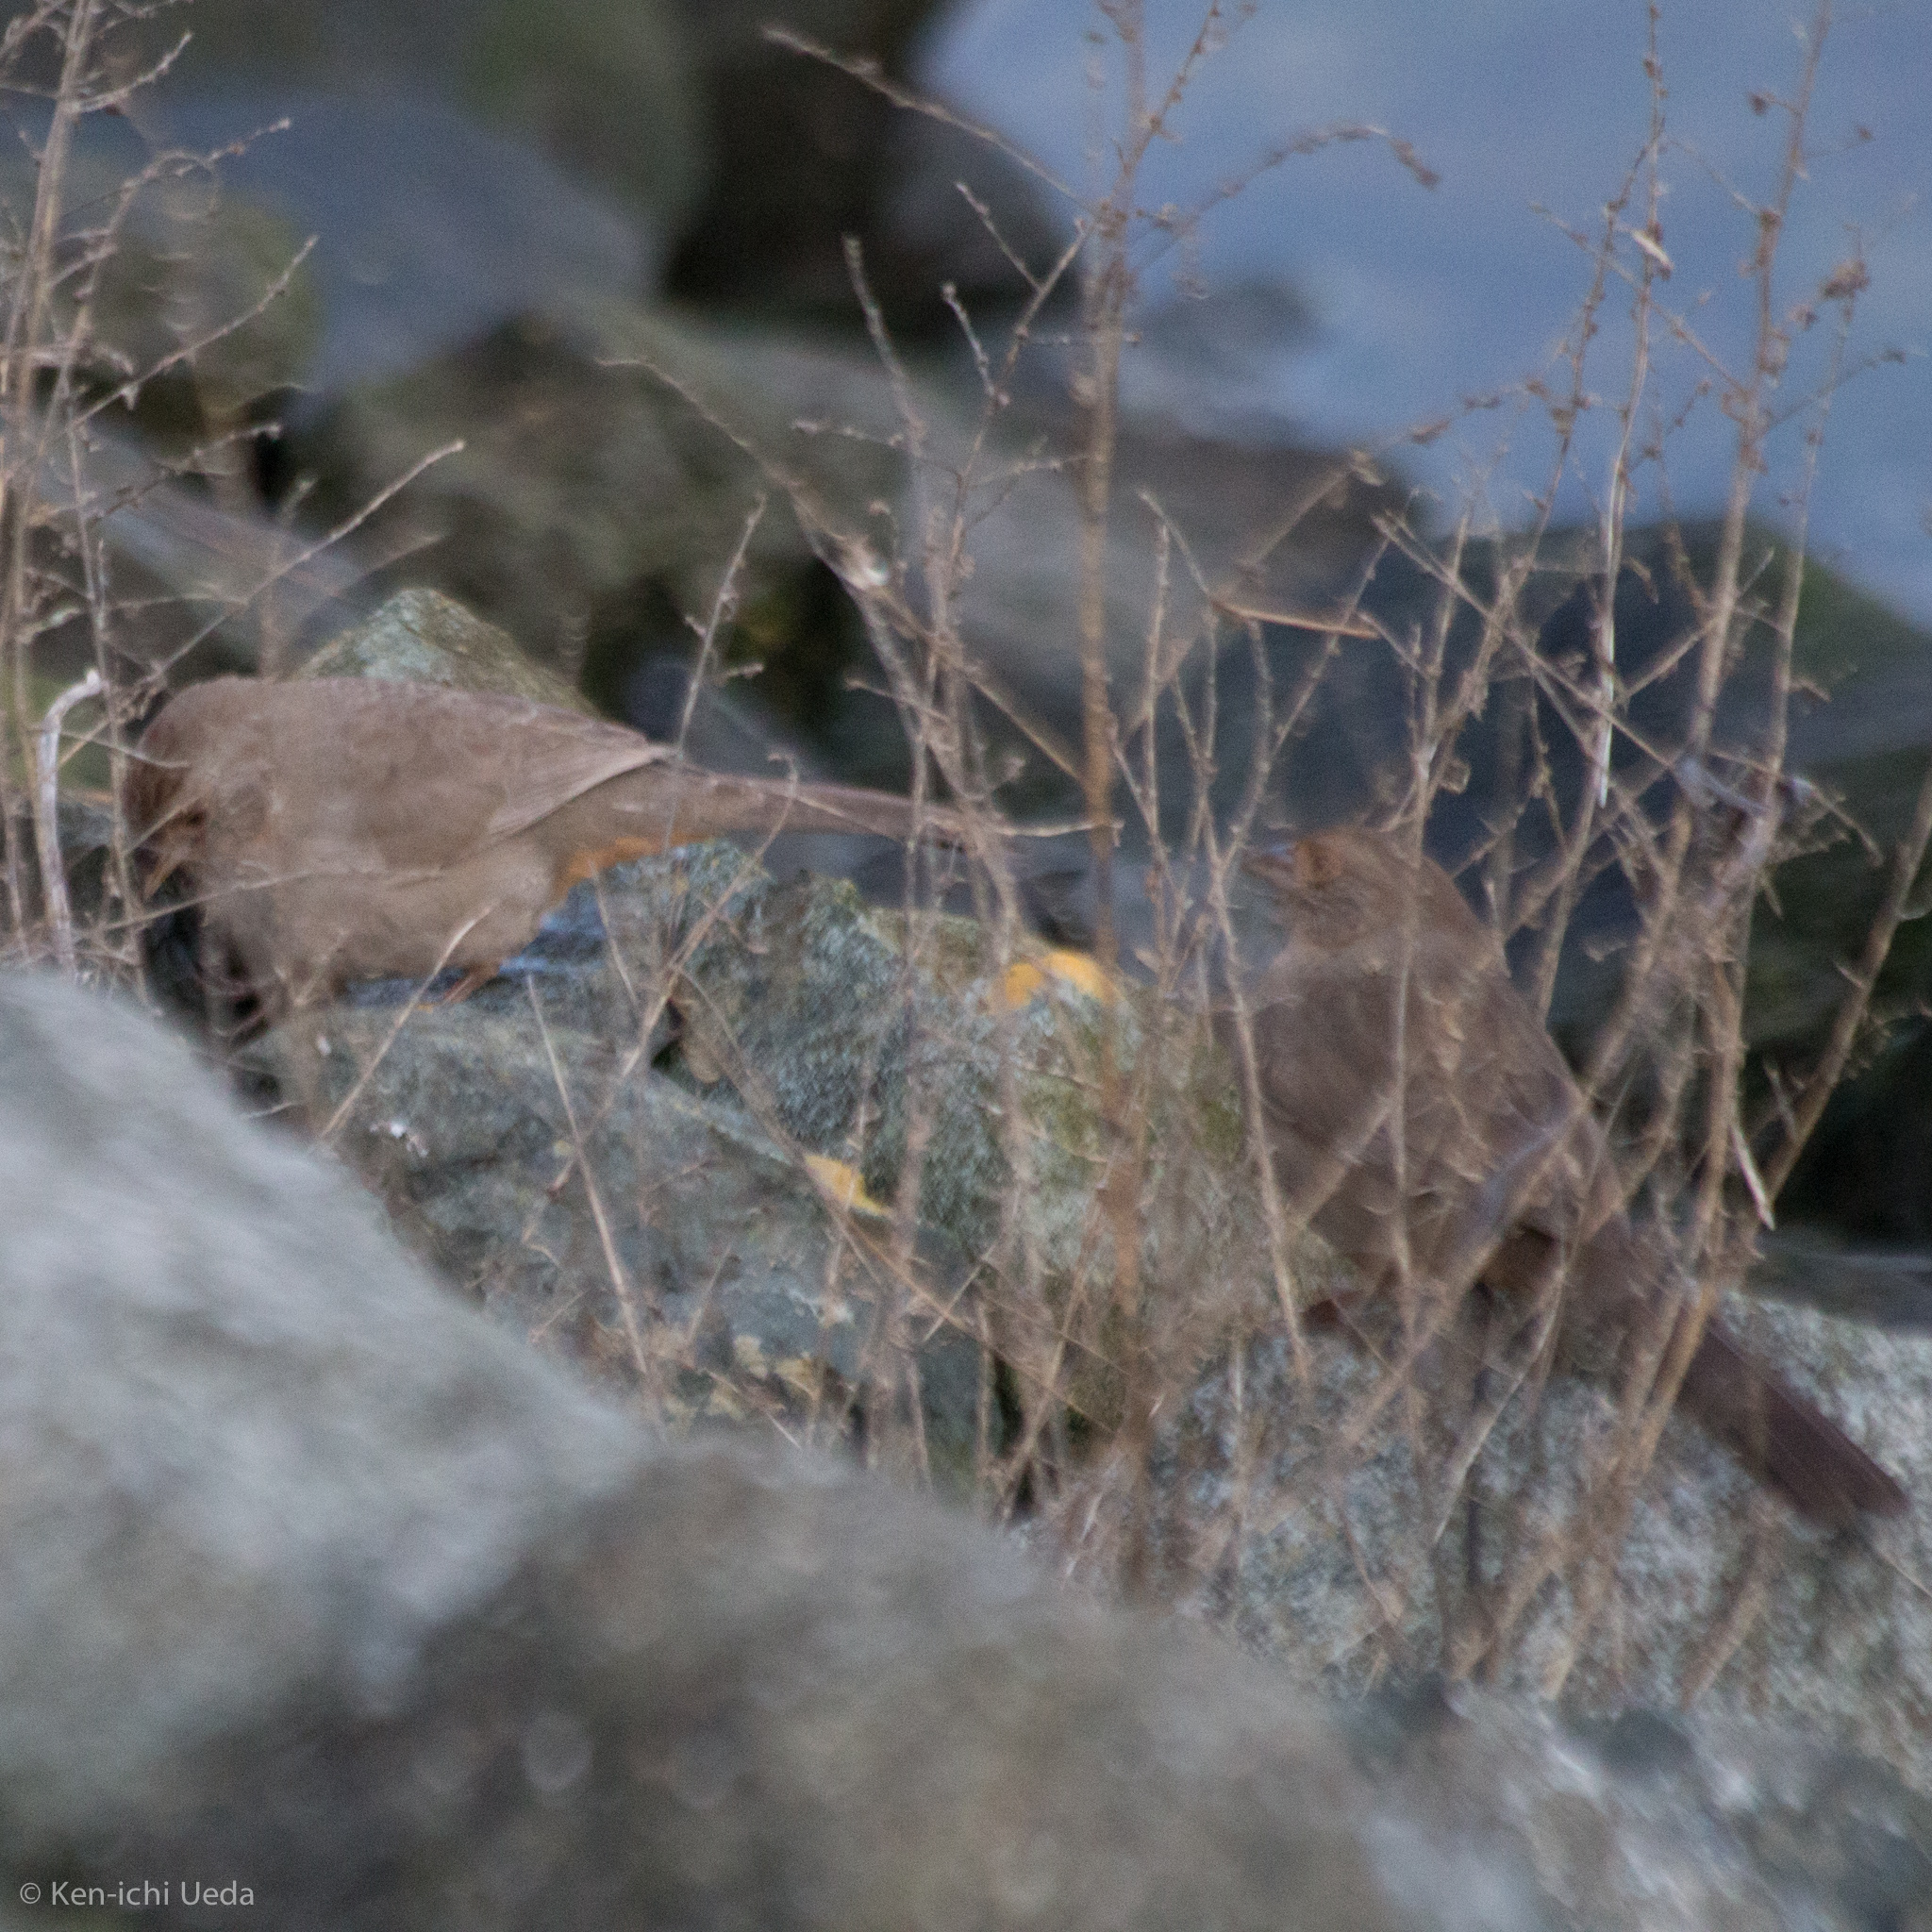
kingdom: Animalia
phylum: Chordata
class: Aves
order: Passeriformes
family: Passerellidae
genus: Melozone
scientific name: Melozone crissalis
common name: California towhee
